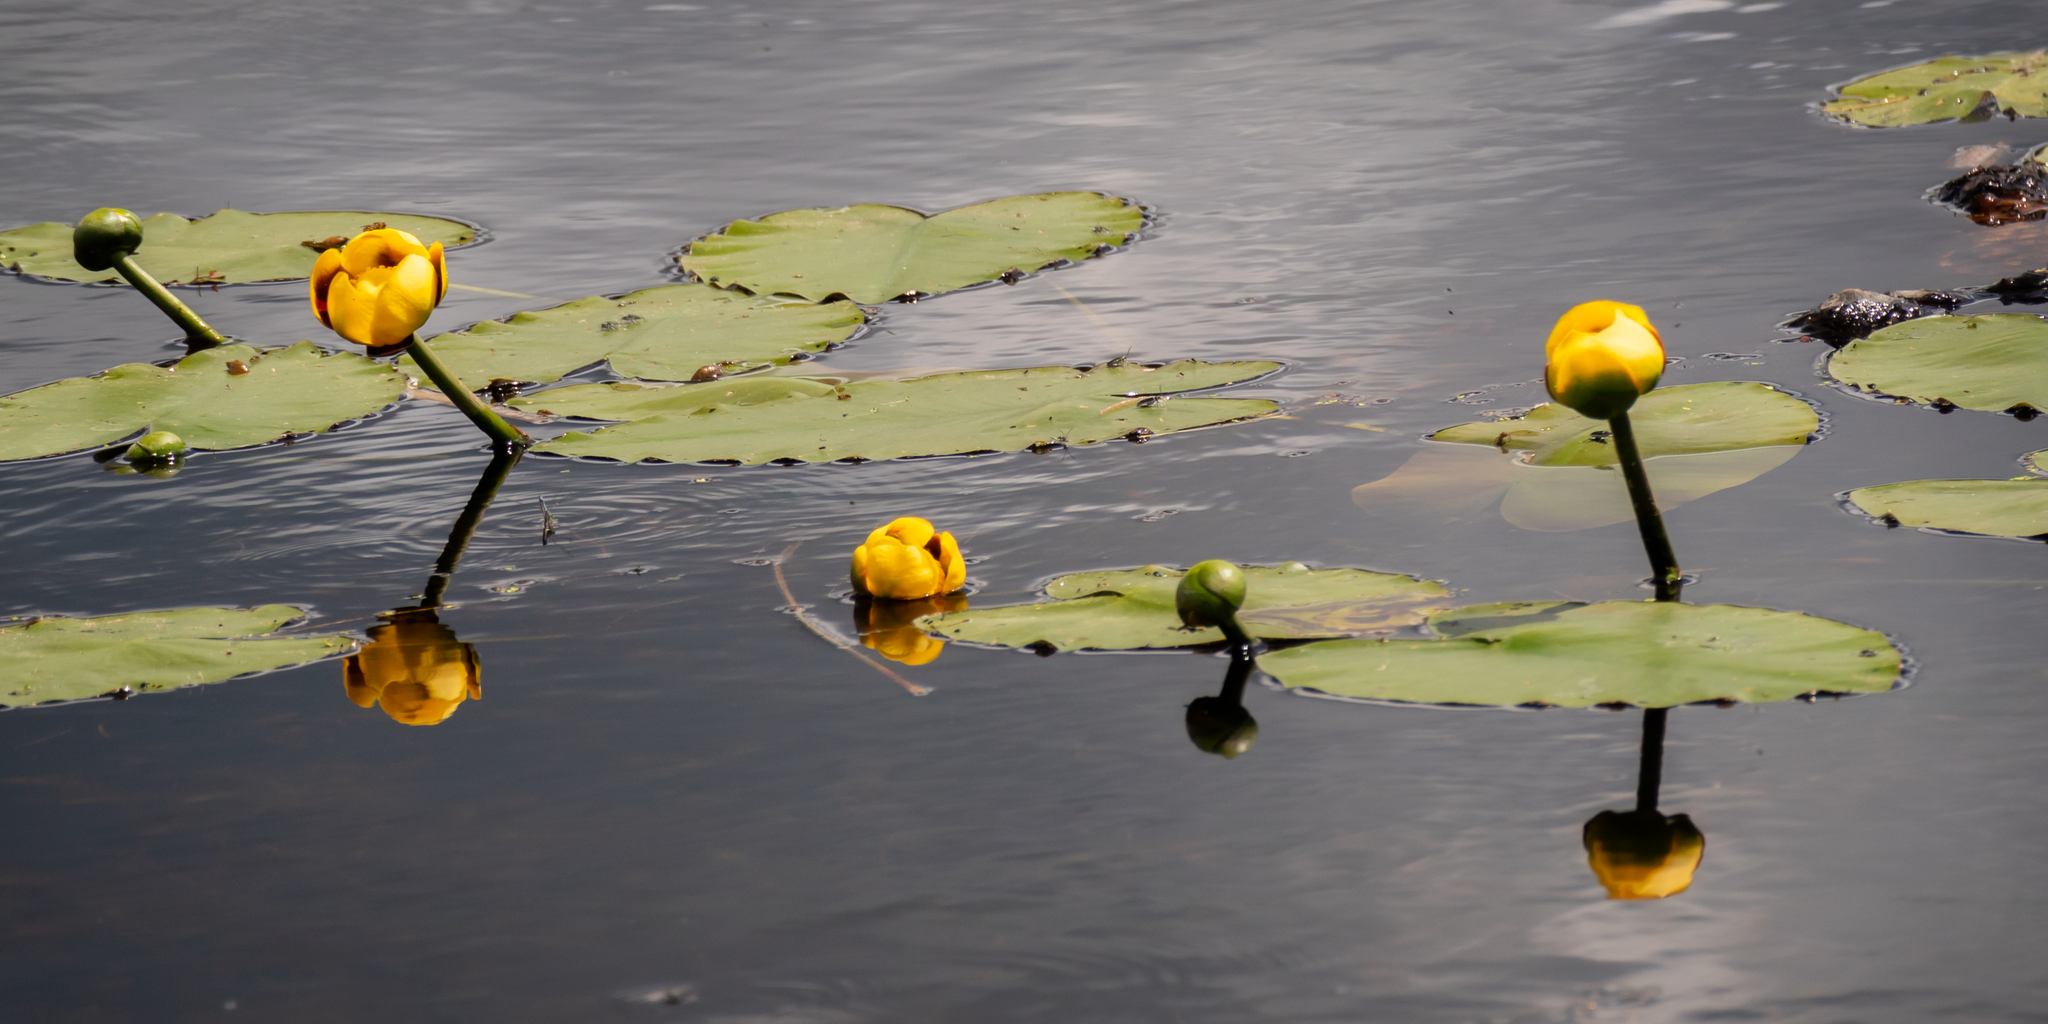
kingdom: Plantae
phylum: Tracheophyta
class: Magnoliopsida
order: Nymphaeales
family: Nymphaeaceae
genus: Nuphar
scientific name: Nuphar variegata
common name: Beaver-root
